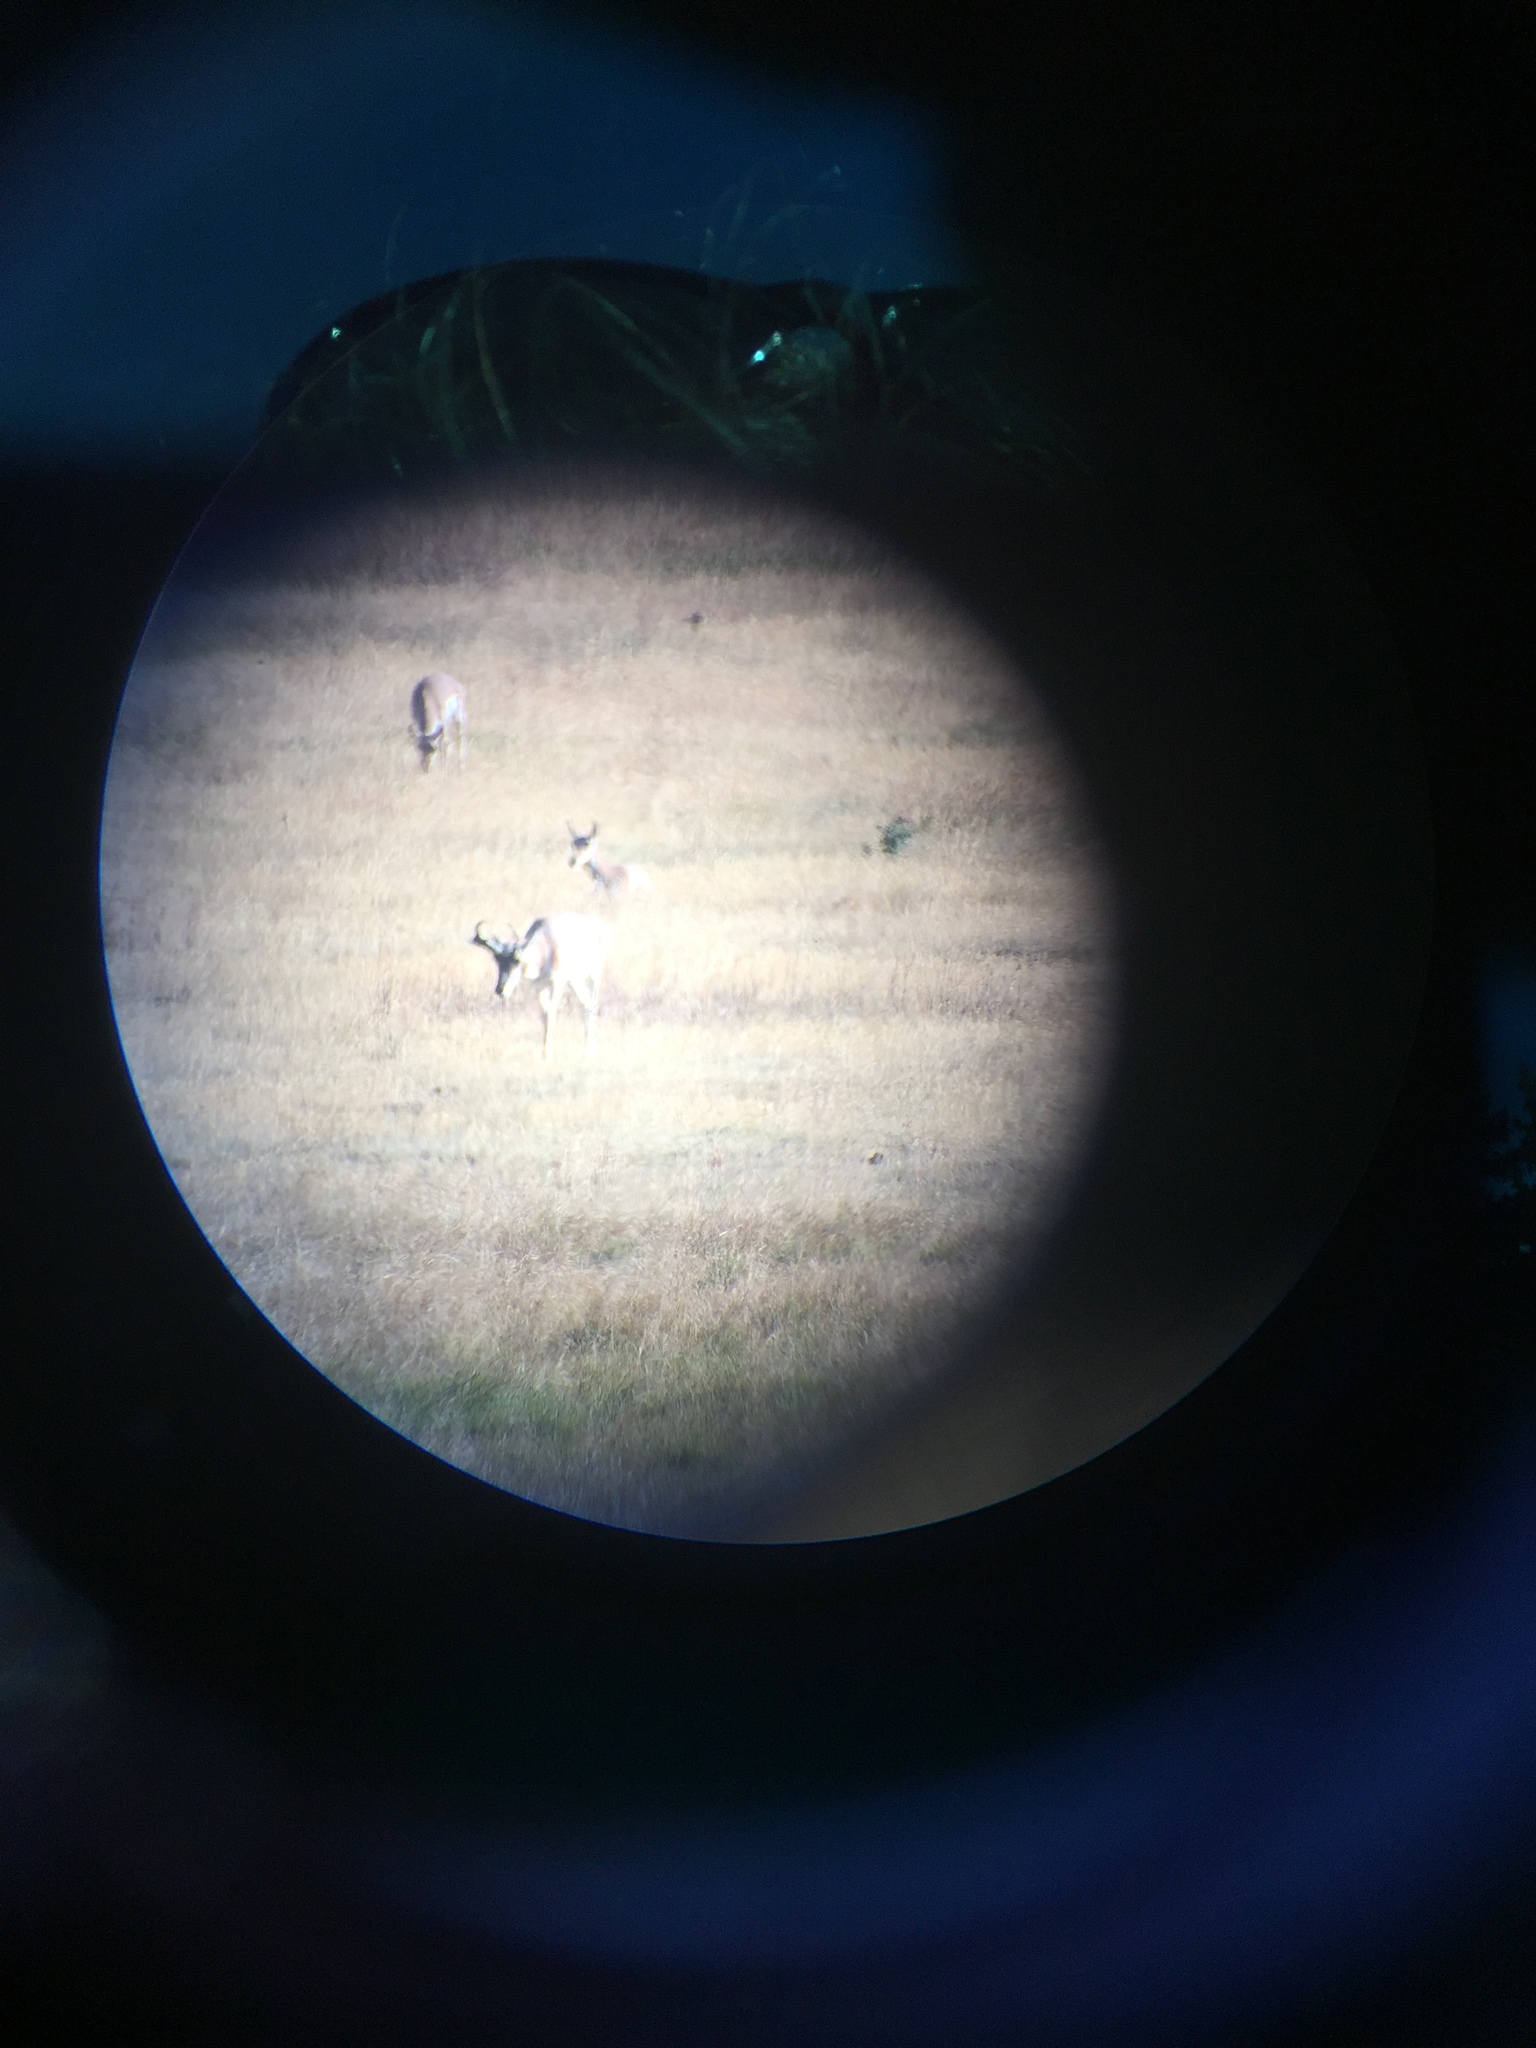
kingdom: Animalia
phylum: Chordata
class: Mammalia
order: Artiodactyla
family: Antilocapridae
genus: Antilocapra
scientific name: Antilocapra americana
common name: Pronghorn
